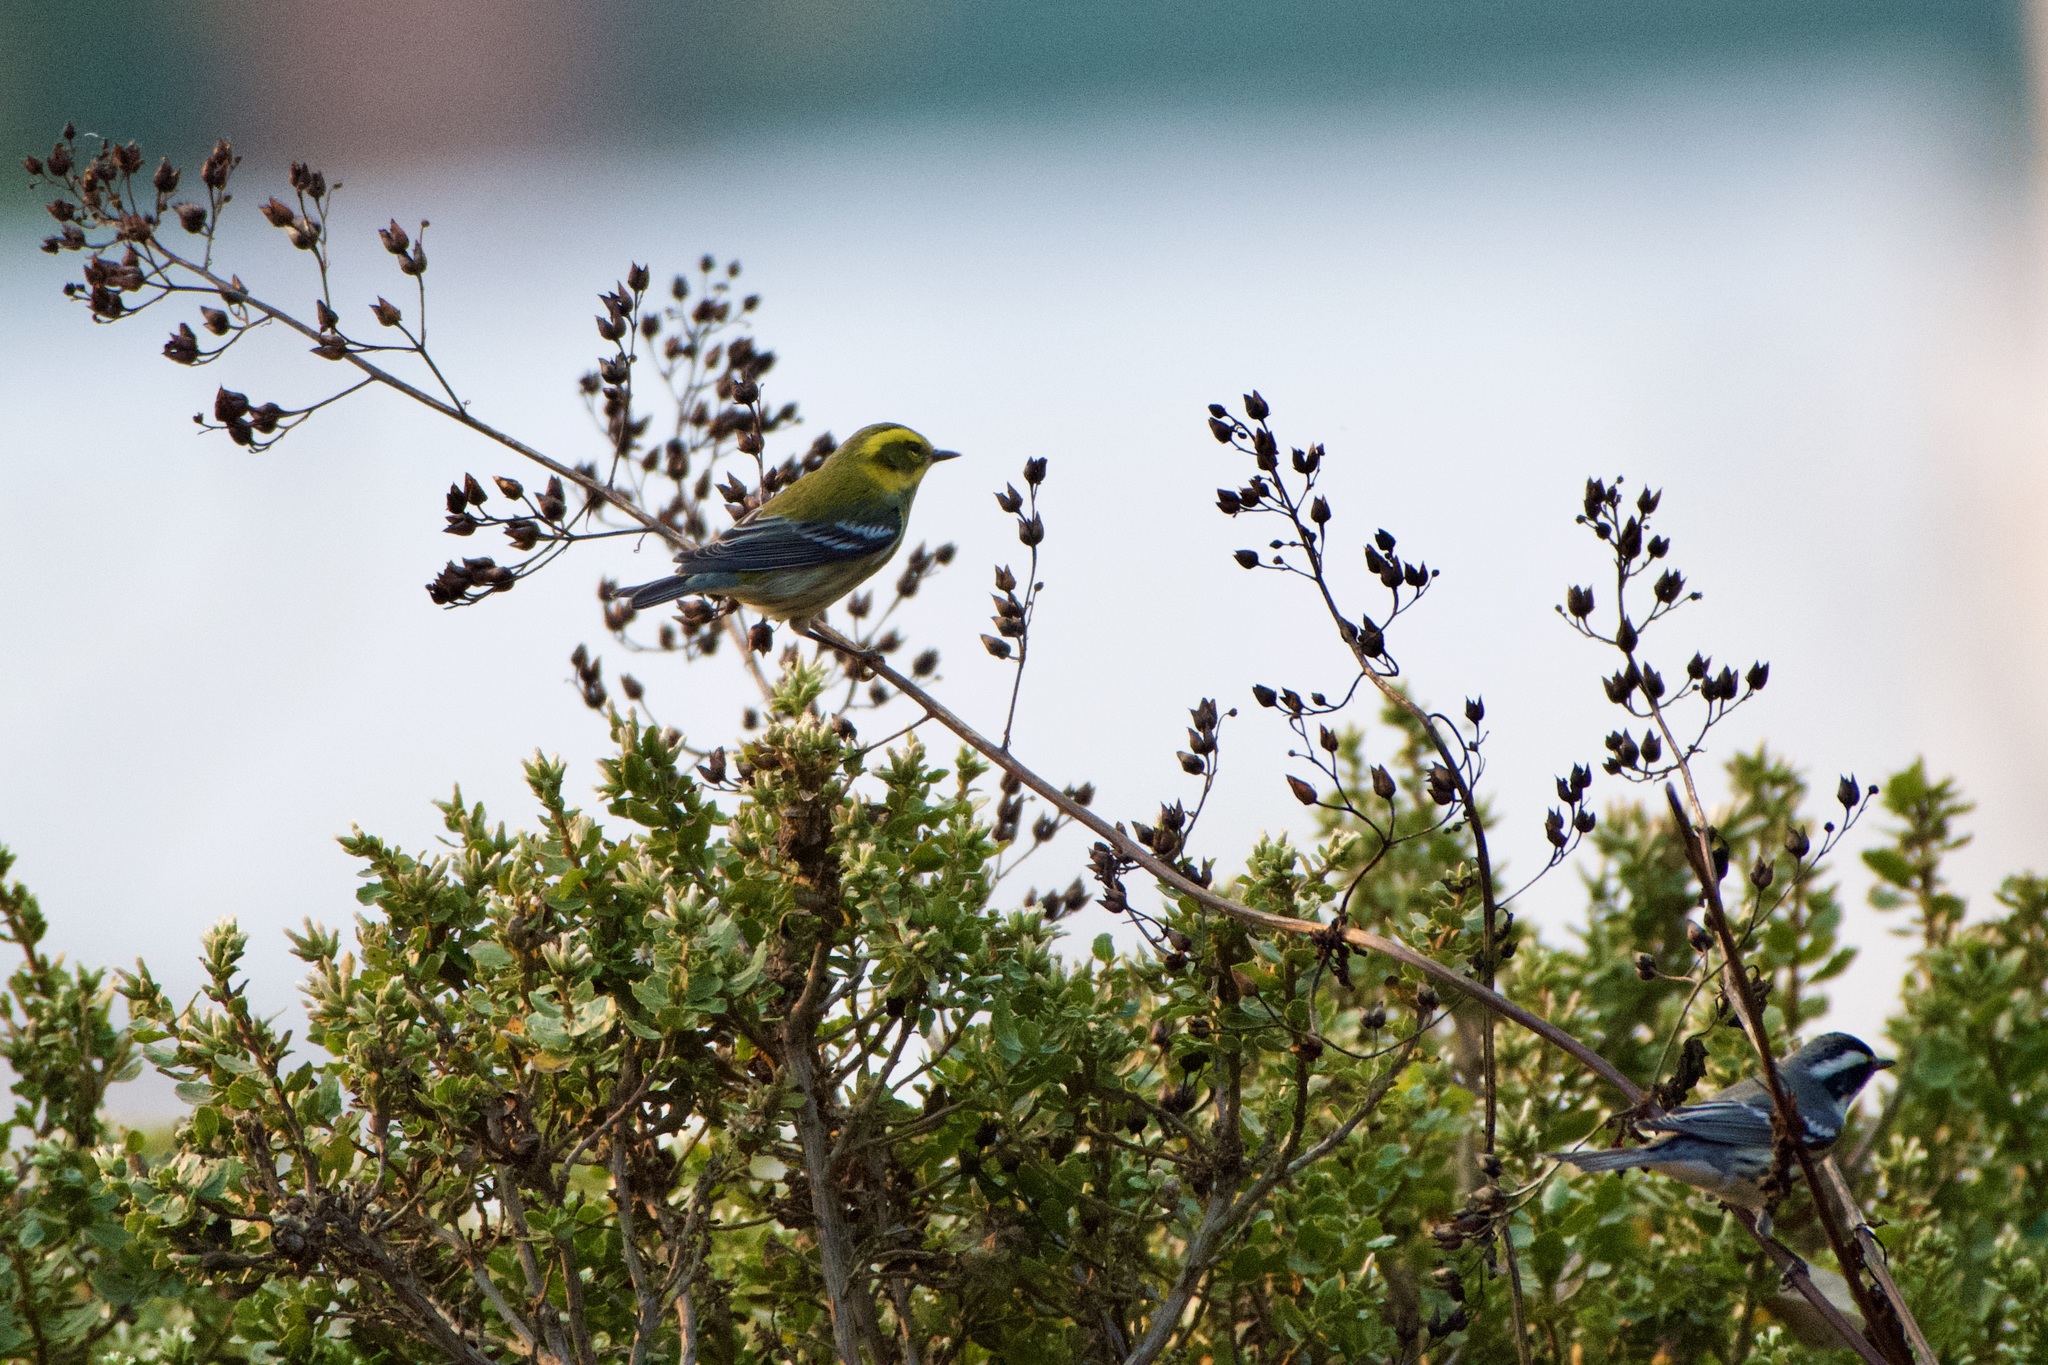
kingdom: Animalia
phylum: Chordata
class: Aves
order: Passeriformes
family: Parulidae
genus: Setophaga
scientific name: Setophaga townsendi
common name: Townsend's warbler
